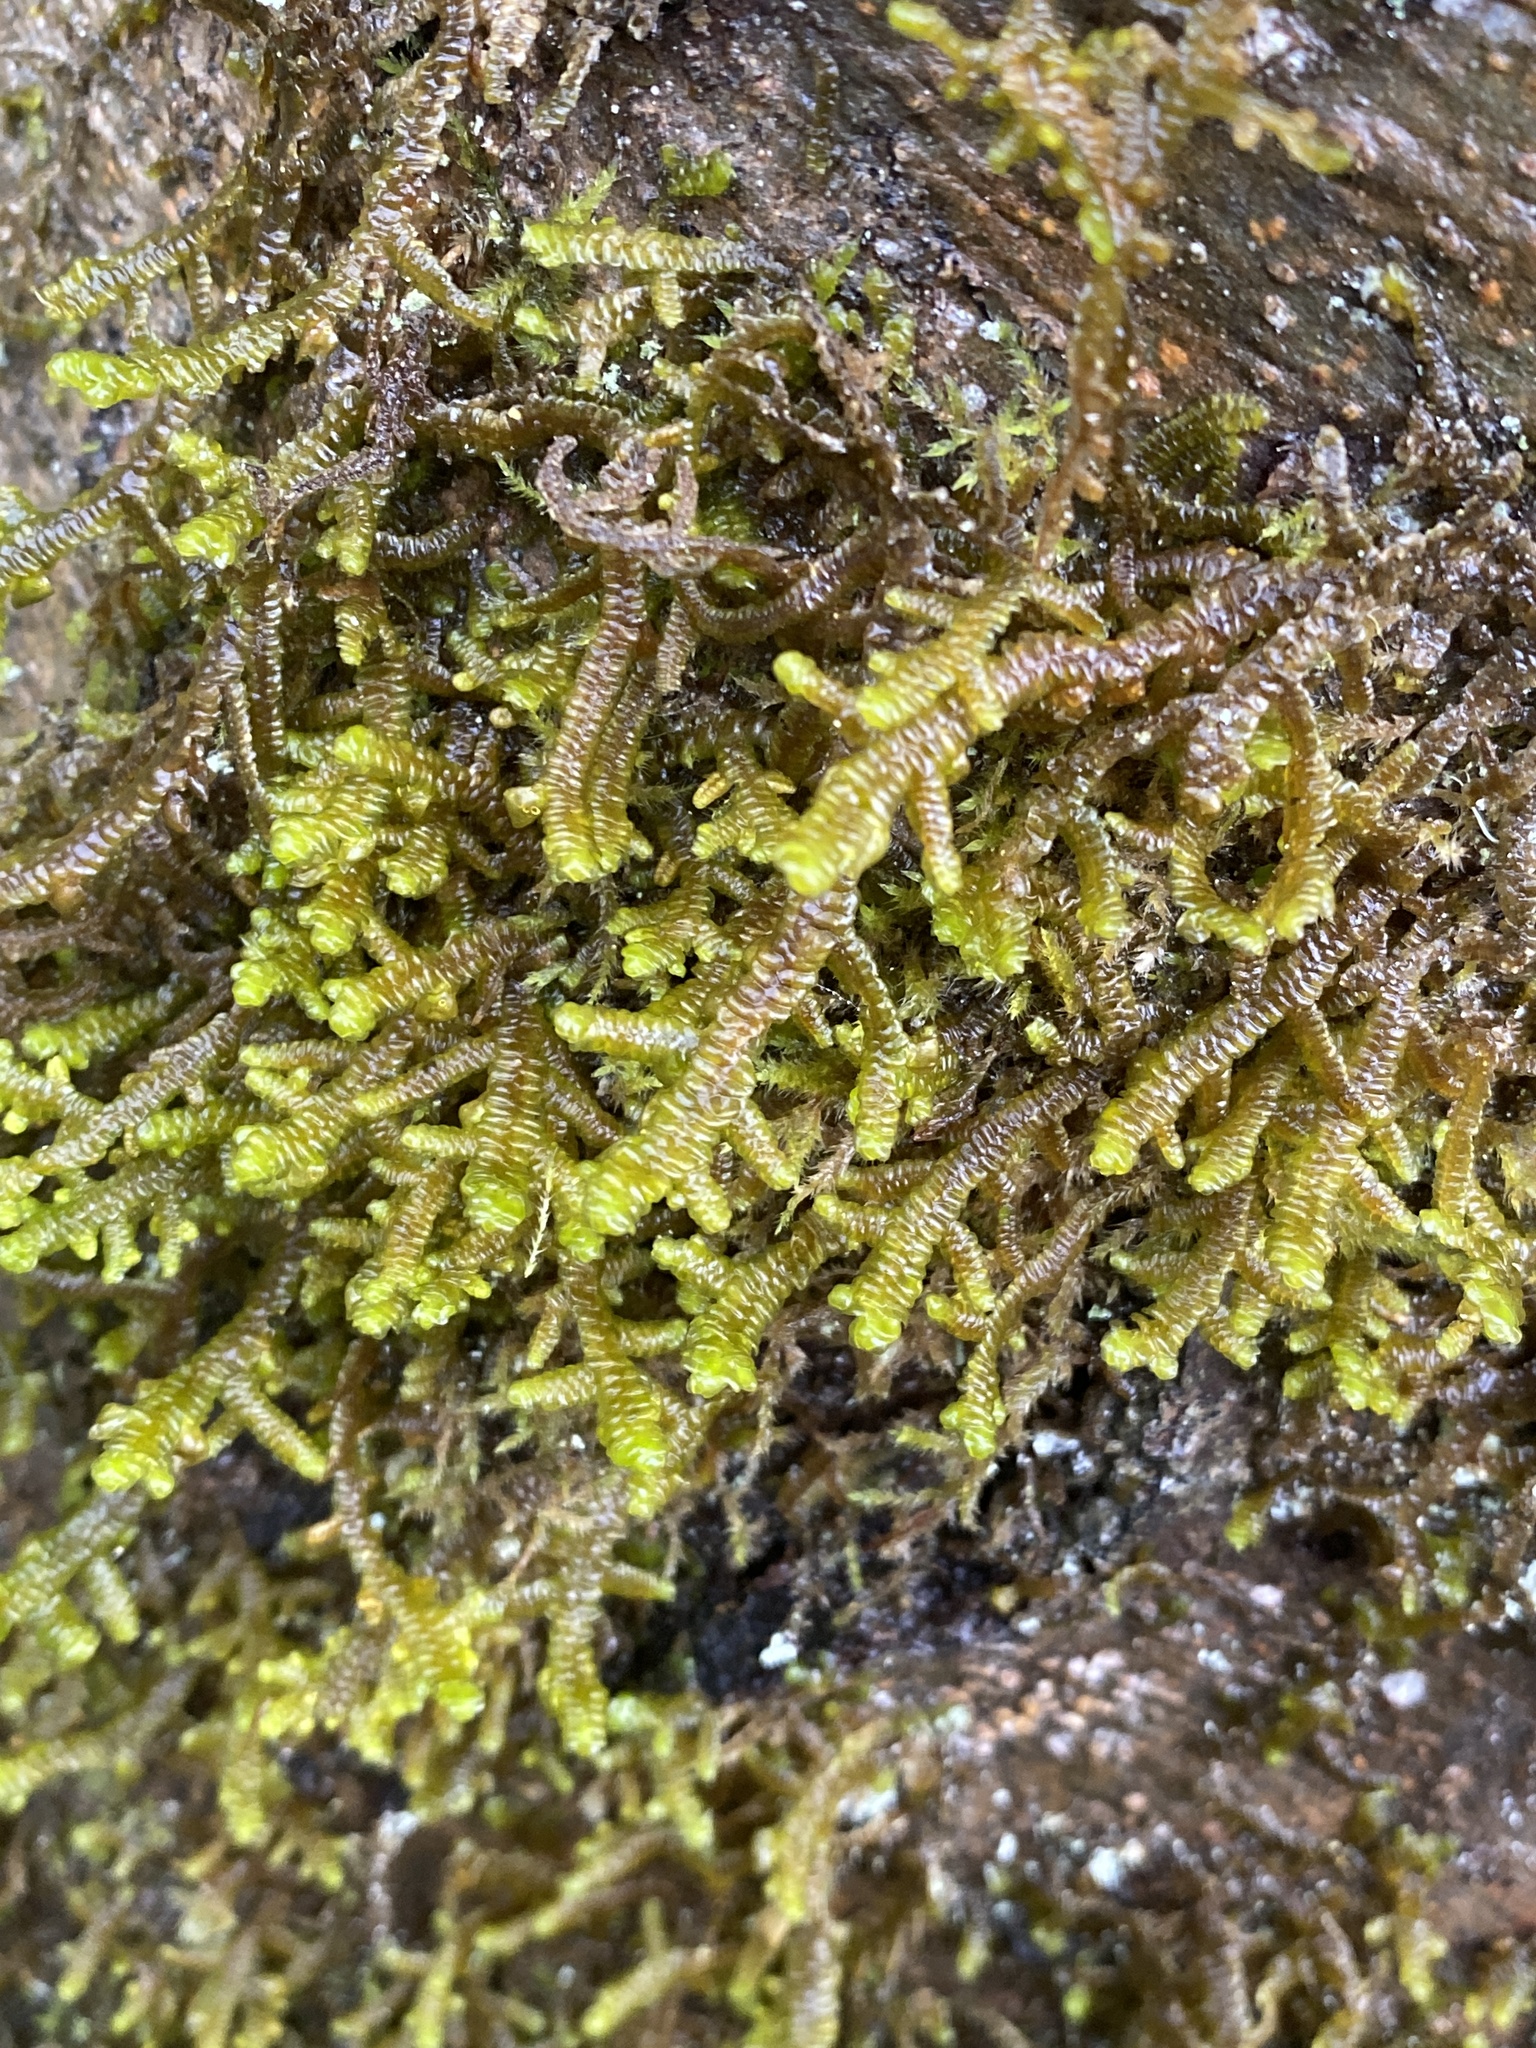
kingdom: Plantae
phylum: Marchantiophyta
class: Jungermanniopsida
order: Porellales
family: Porellaceae
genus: Porella
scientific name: Porella navicularis
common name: Tree ruffle liverwort
